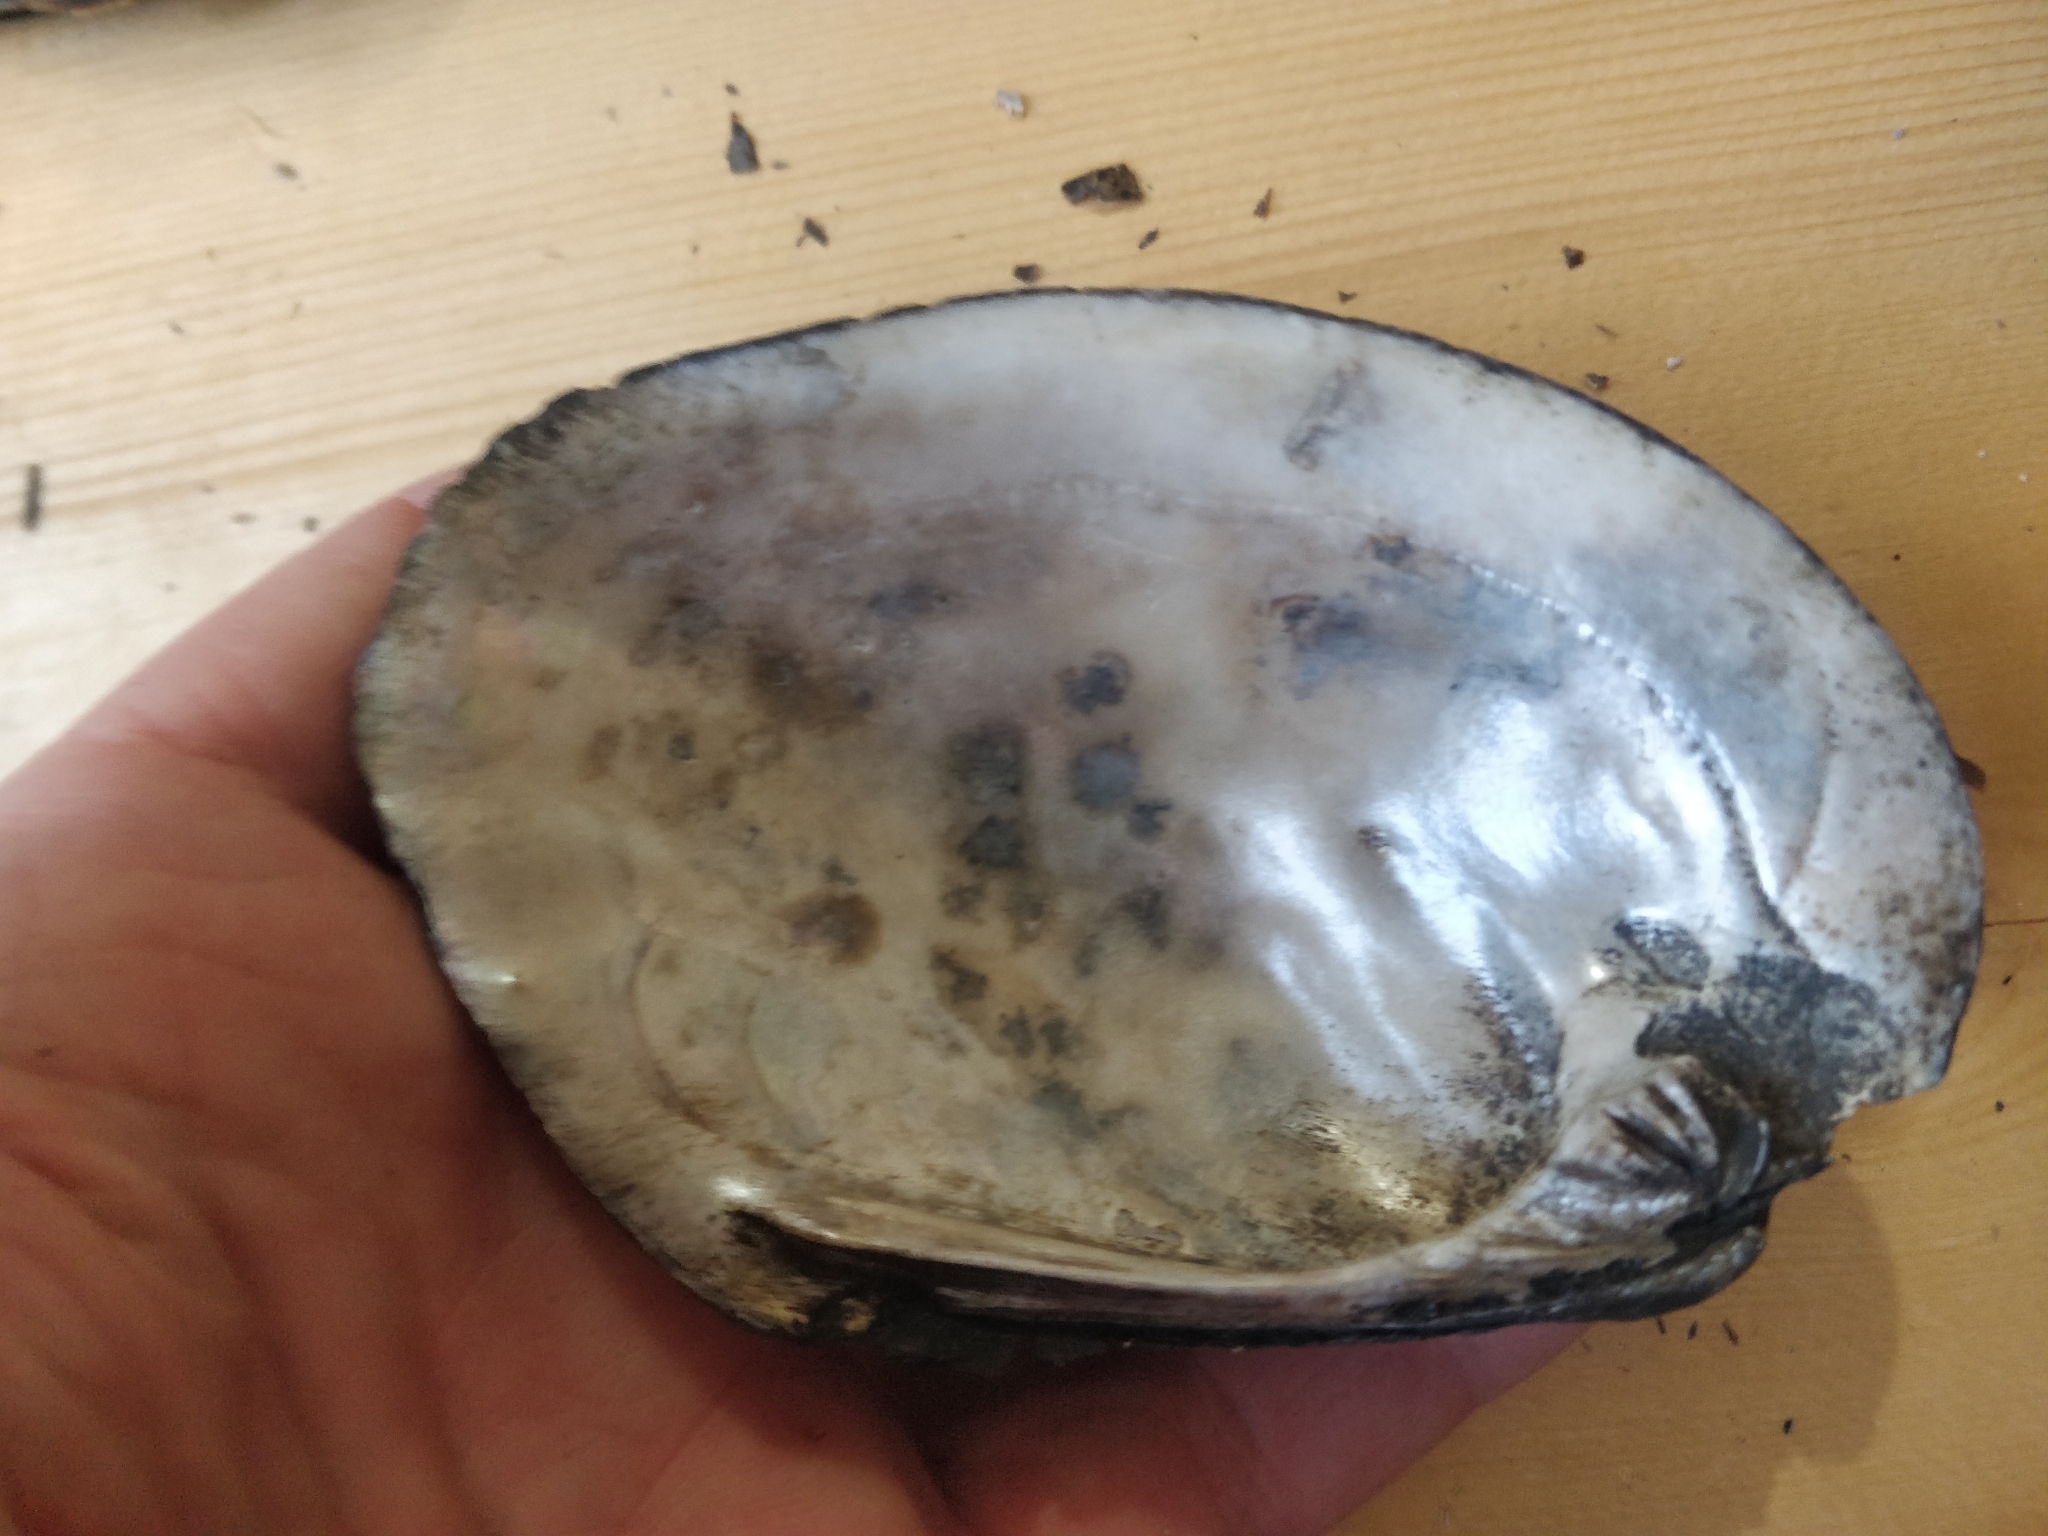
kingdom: Animalia
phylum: Mollusca
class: Bivalvia
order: Unionida
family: Unionidae
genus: Amblema
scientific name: Amblema plicata
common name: Threeridge
